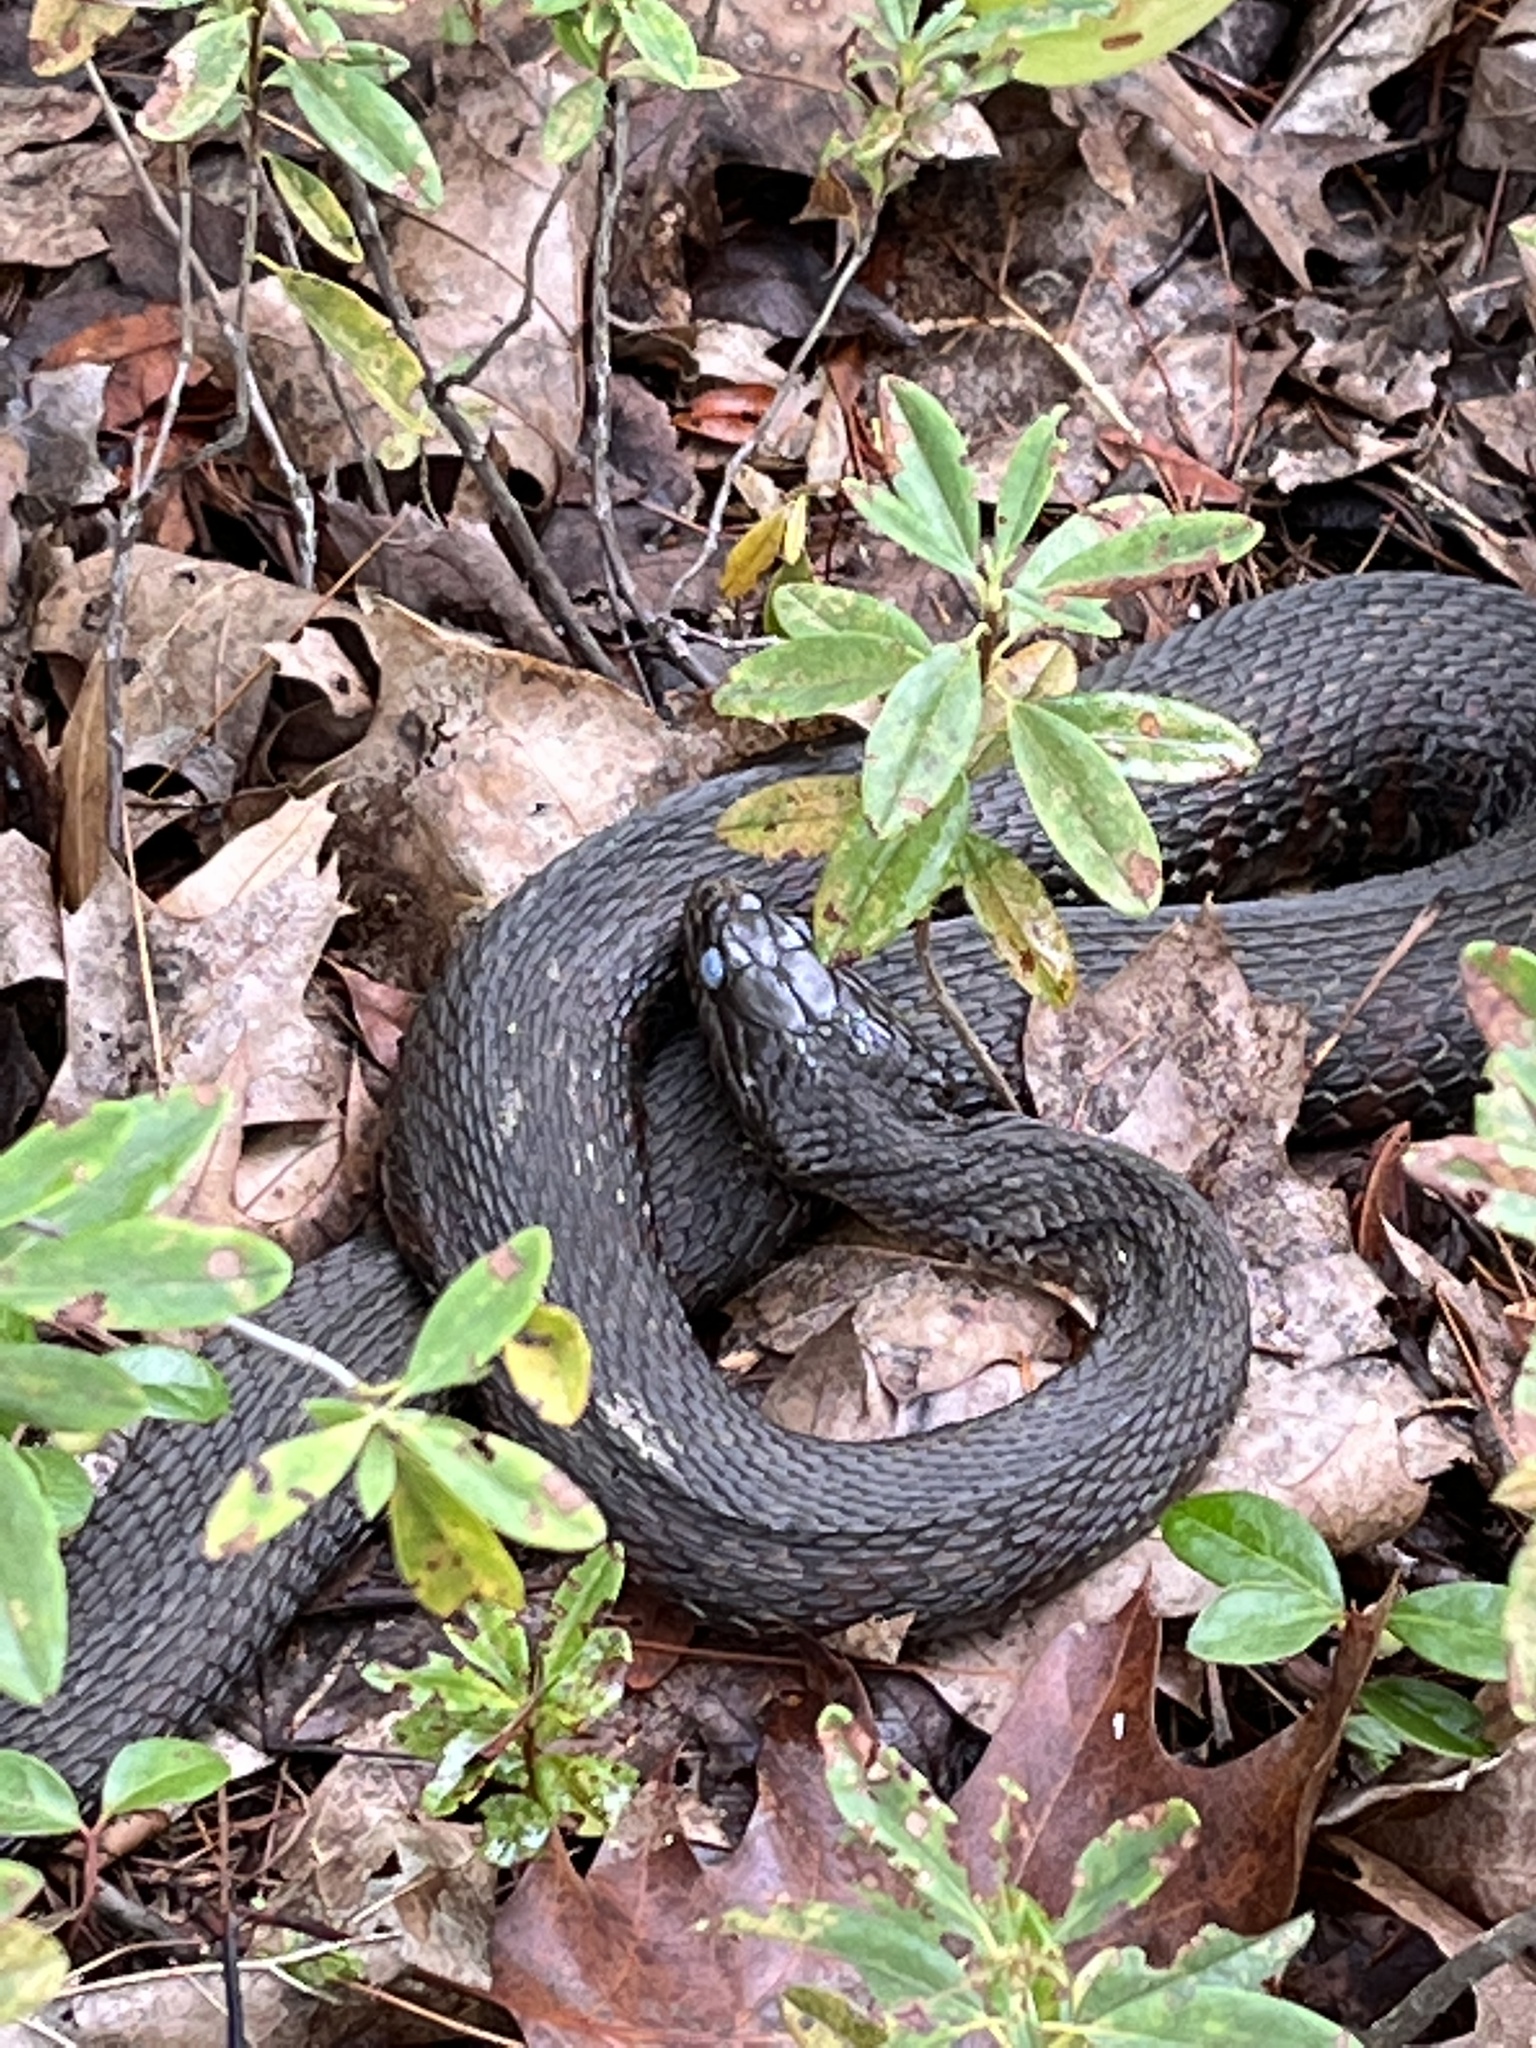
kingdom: Animalia
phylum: Chordata
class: Squamata
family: Colubridae
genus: Nerodia
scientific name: Nerodia sipedon
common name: Northern water snake
